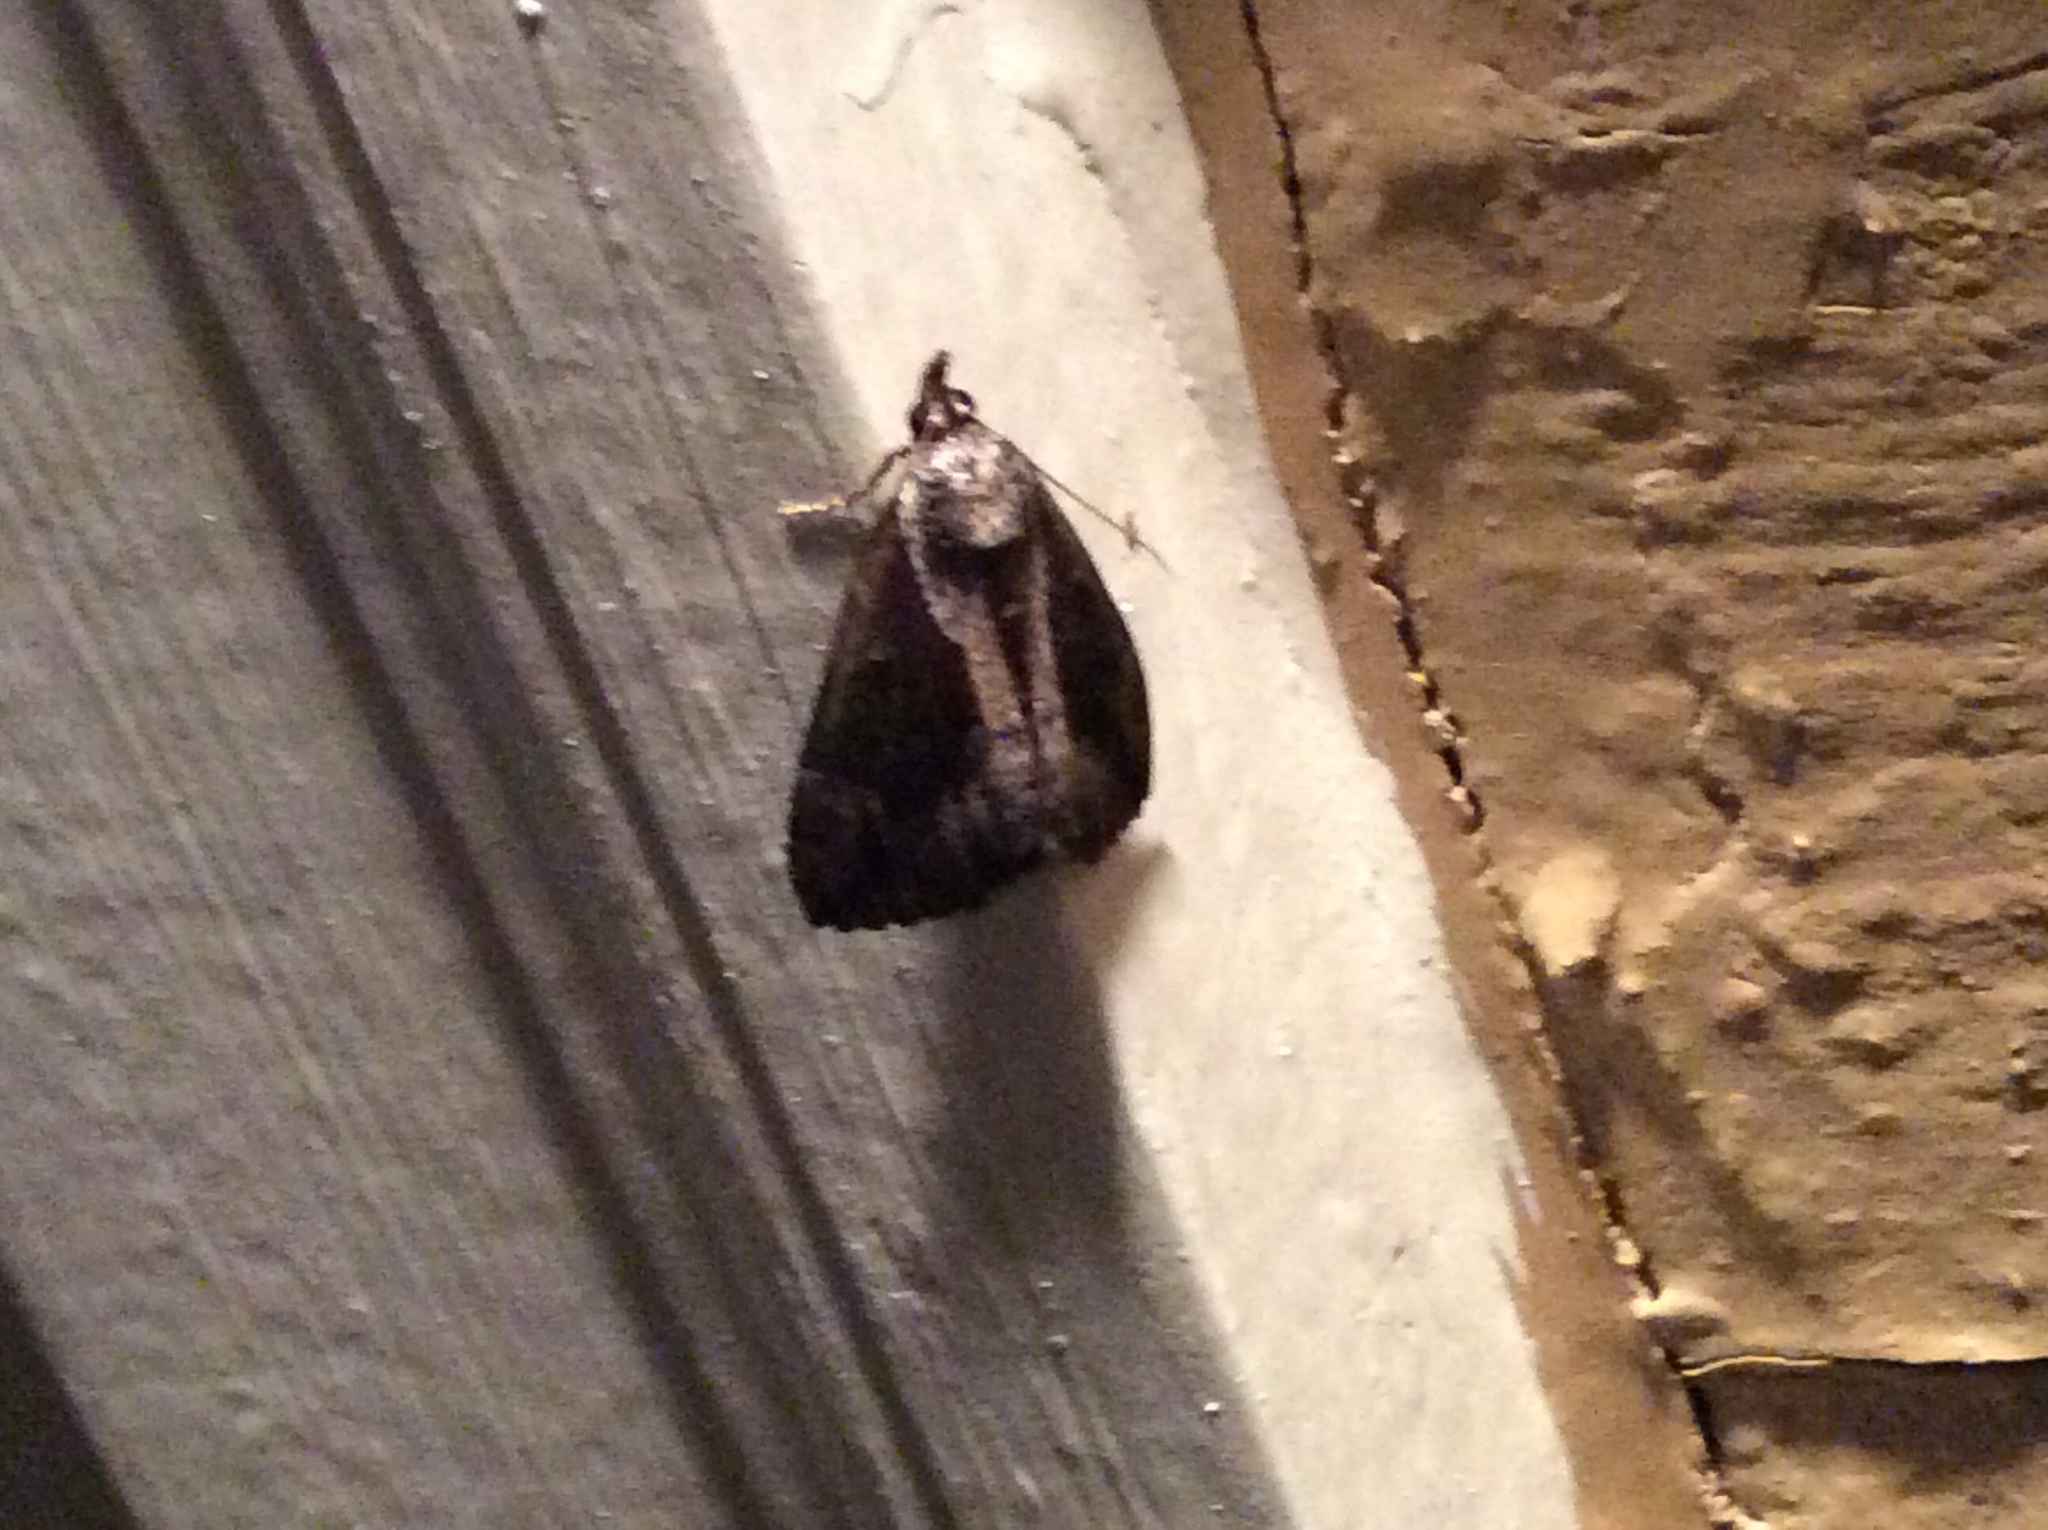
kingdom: Animalia
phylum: Arthropoda
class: Insecta
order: Lepidoptera
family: Erebidae
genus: Hypena
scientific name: Hypena baltimoralis
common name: Baltimore snout
